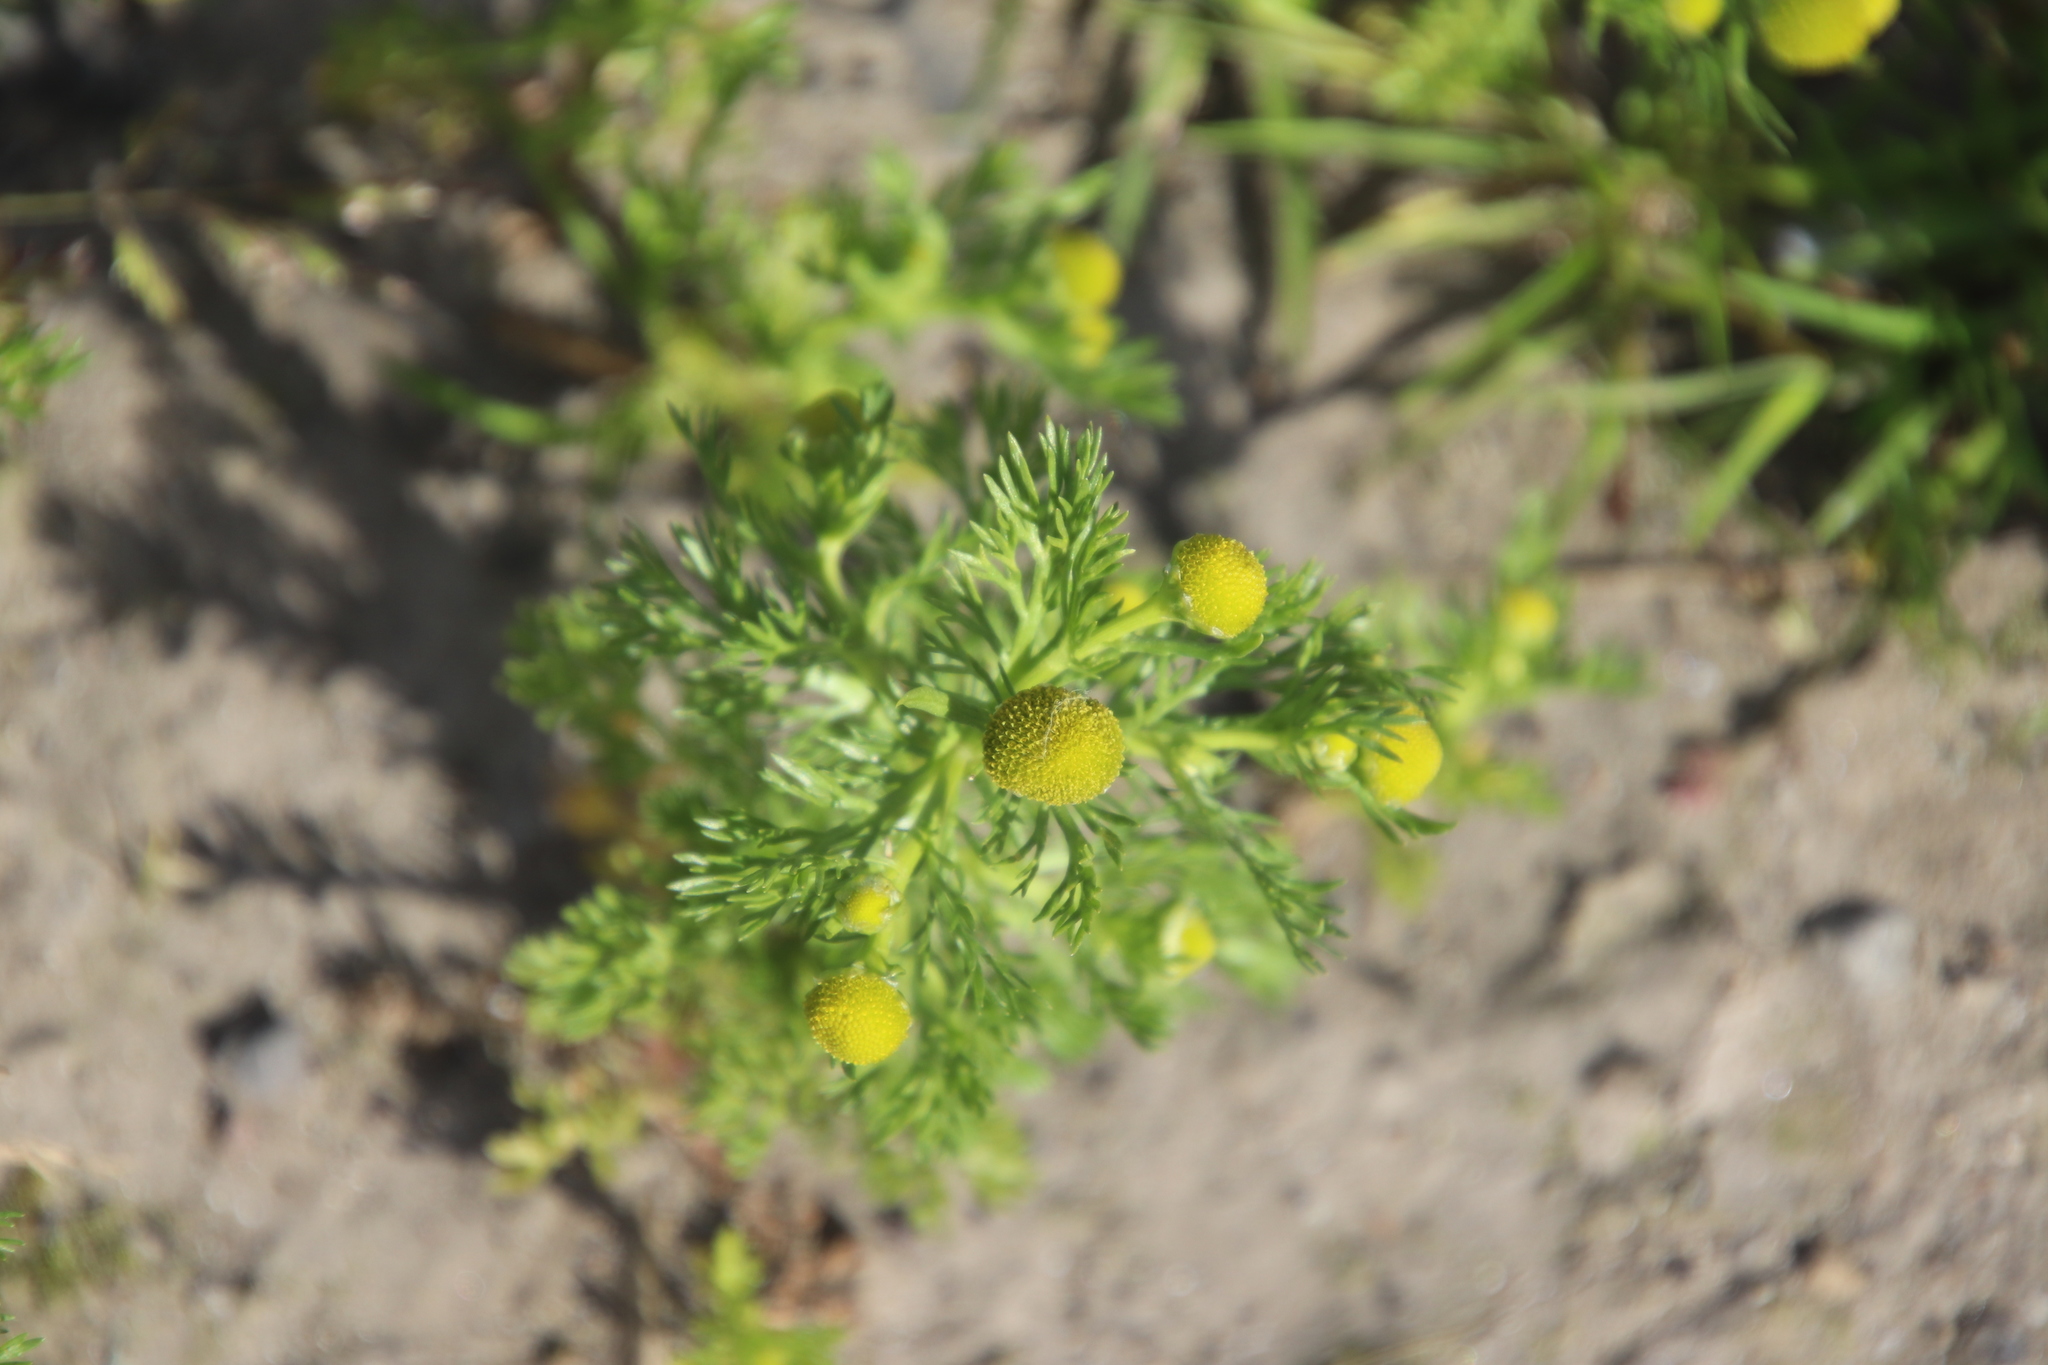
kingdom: Plantae
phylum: Tracheophyta
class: Magnoliopsida
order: Asterales
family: Asteraceae
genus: Matricaria
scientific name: Matricaria discoidea
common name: Disc mayweed
